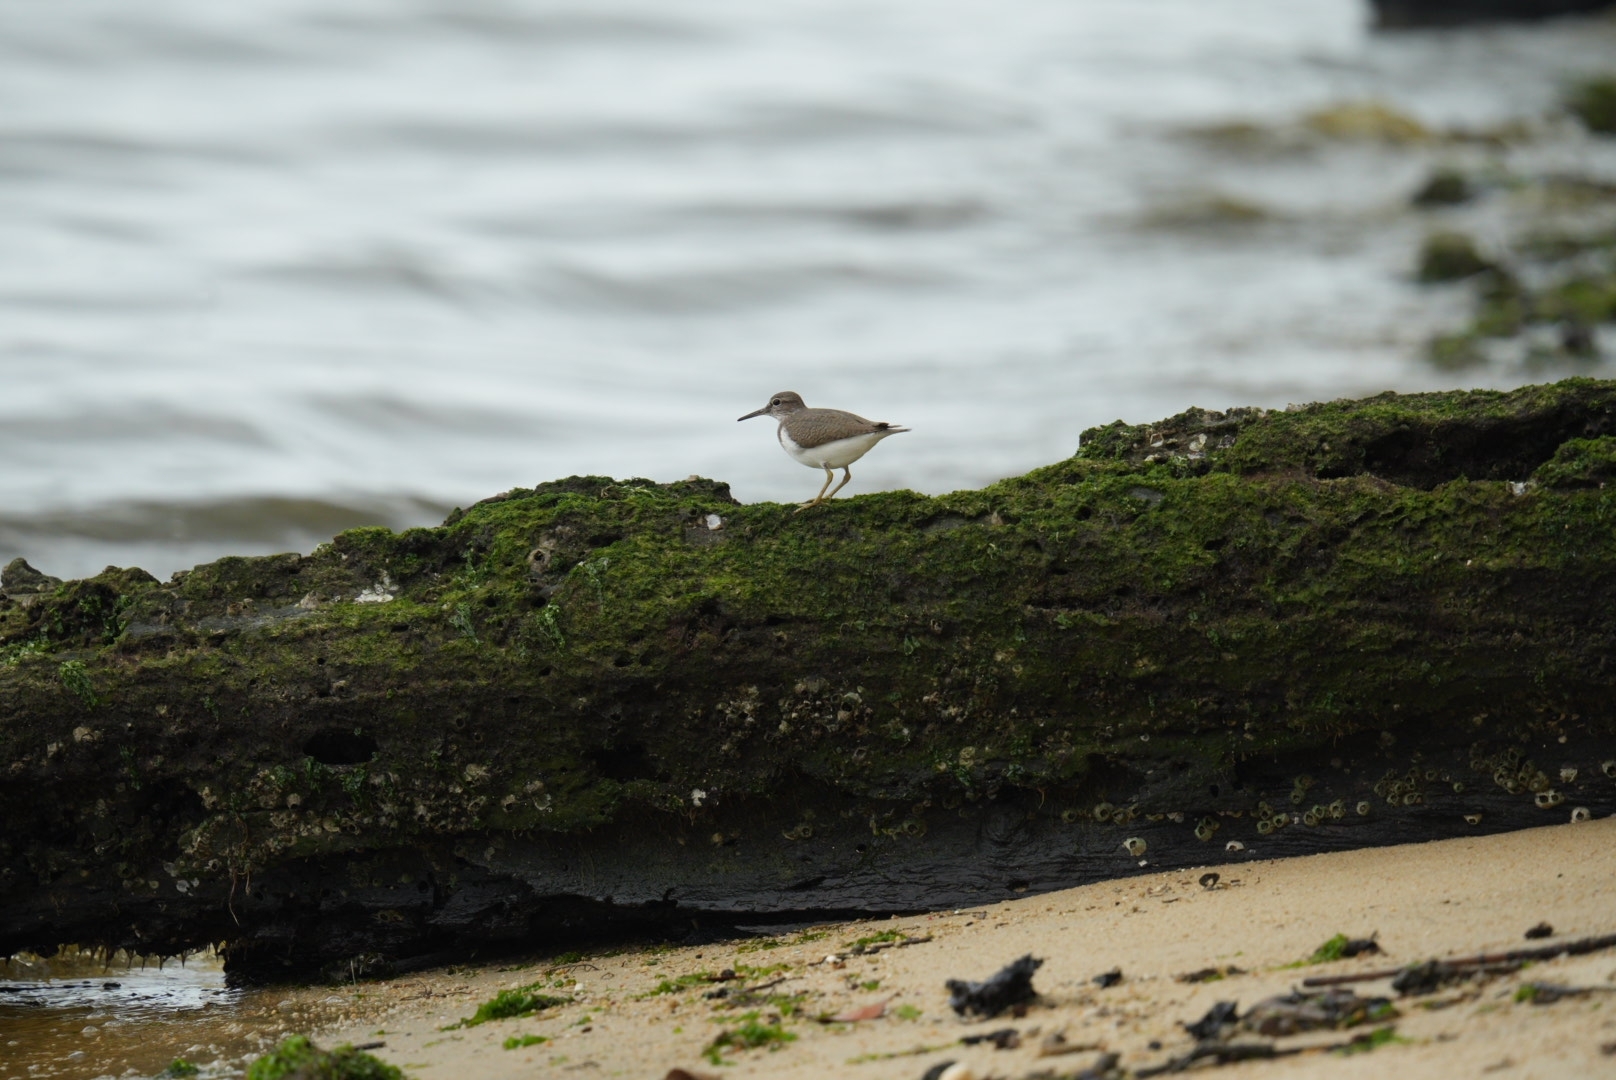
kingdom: Animalia
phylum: Chordata
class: Aves
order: Charadriiformes
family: Scolopacidae
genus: Actitis
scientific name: Actitis hypoleucos
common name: Common sandpiper
